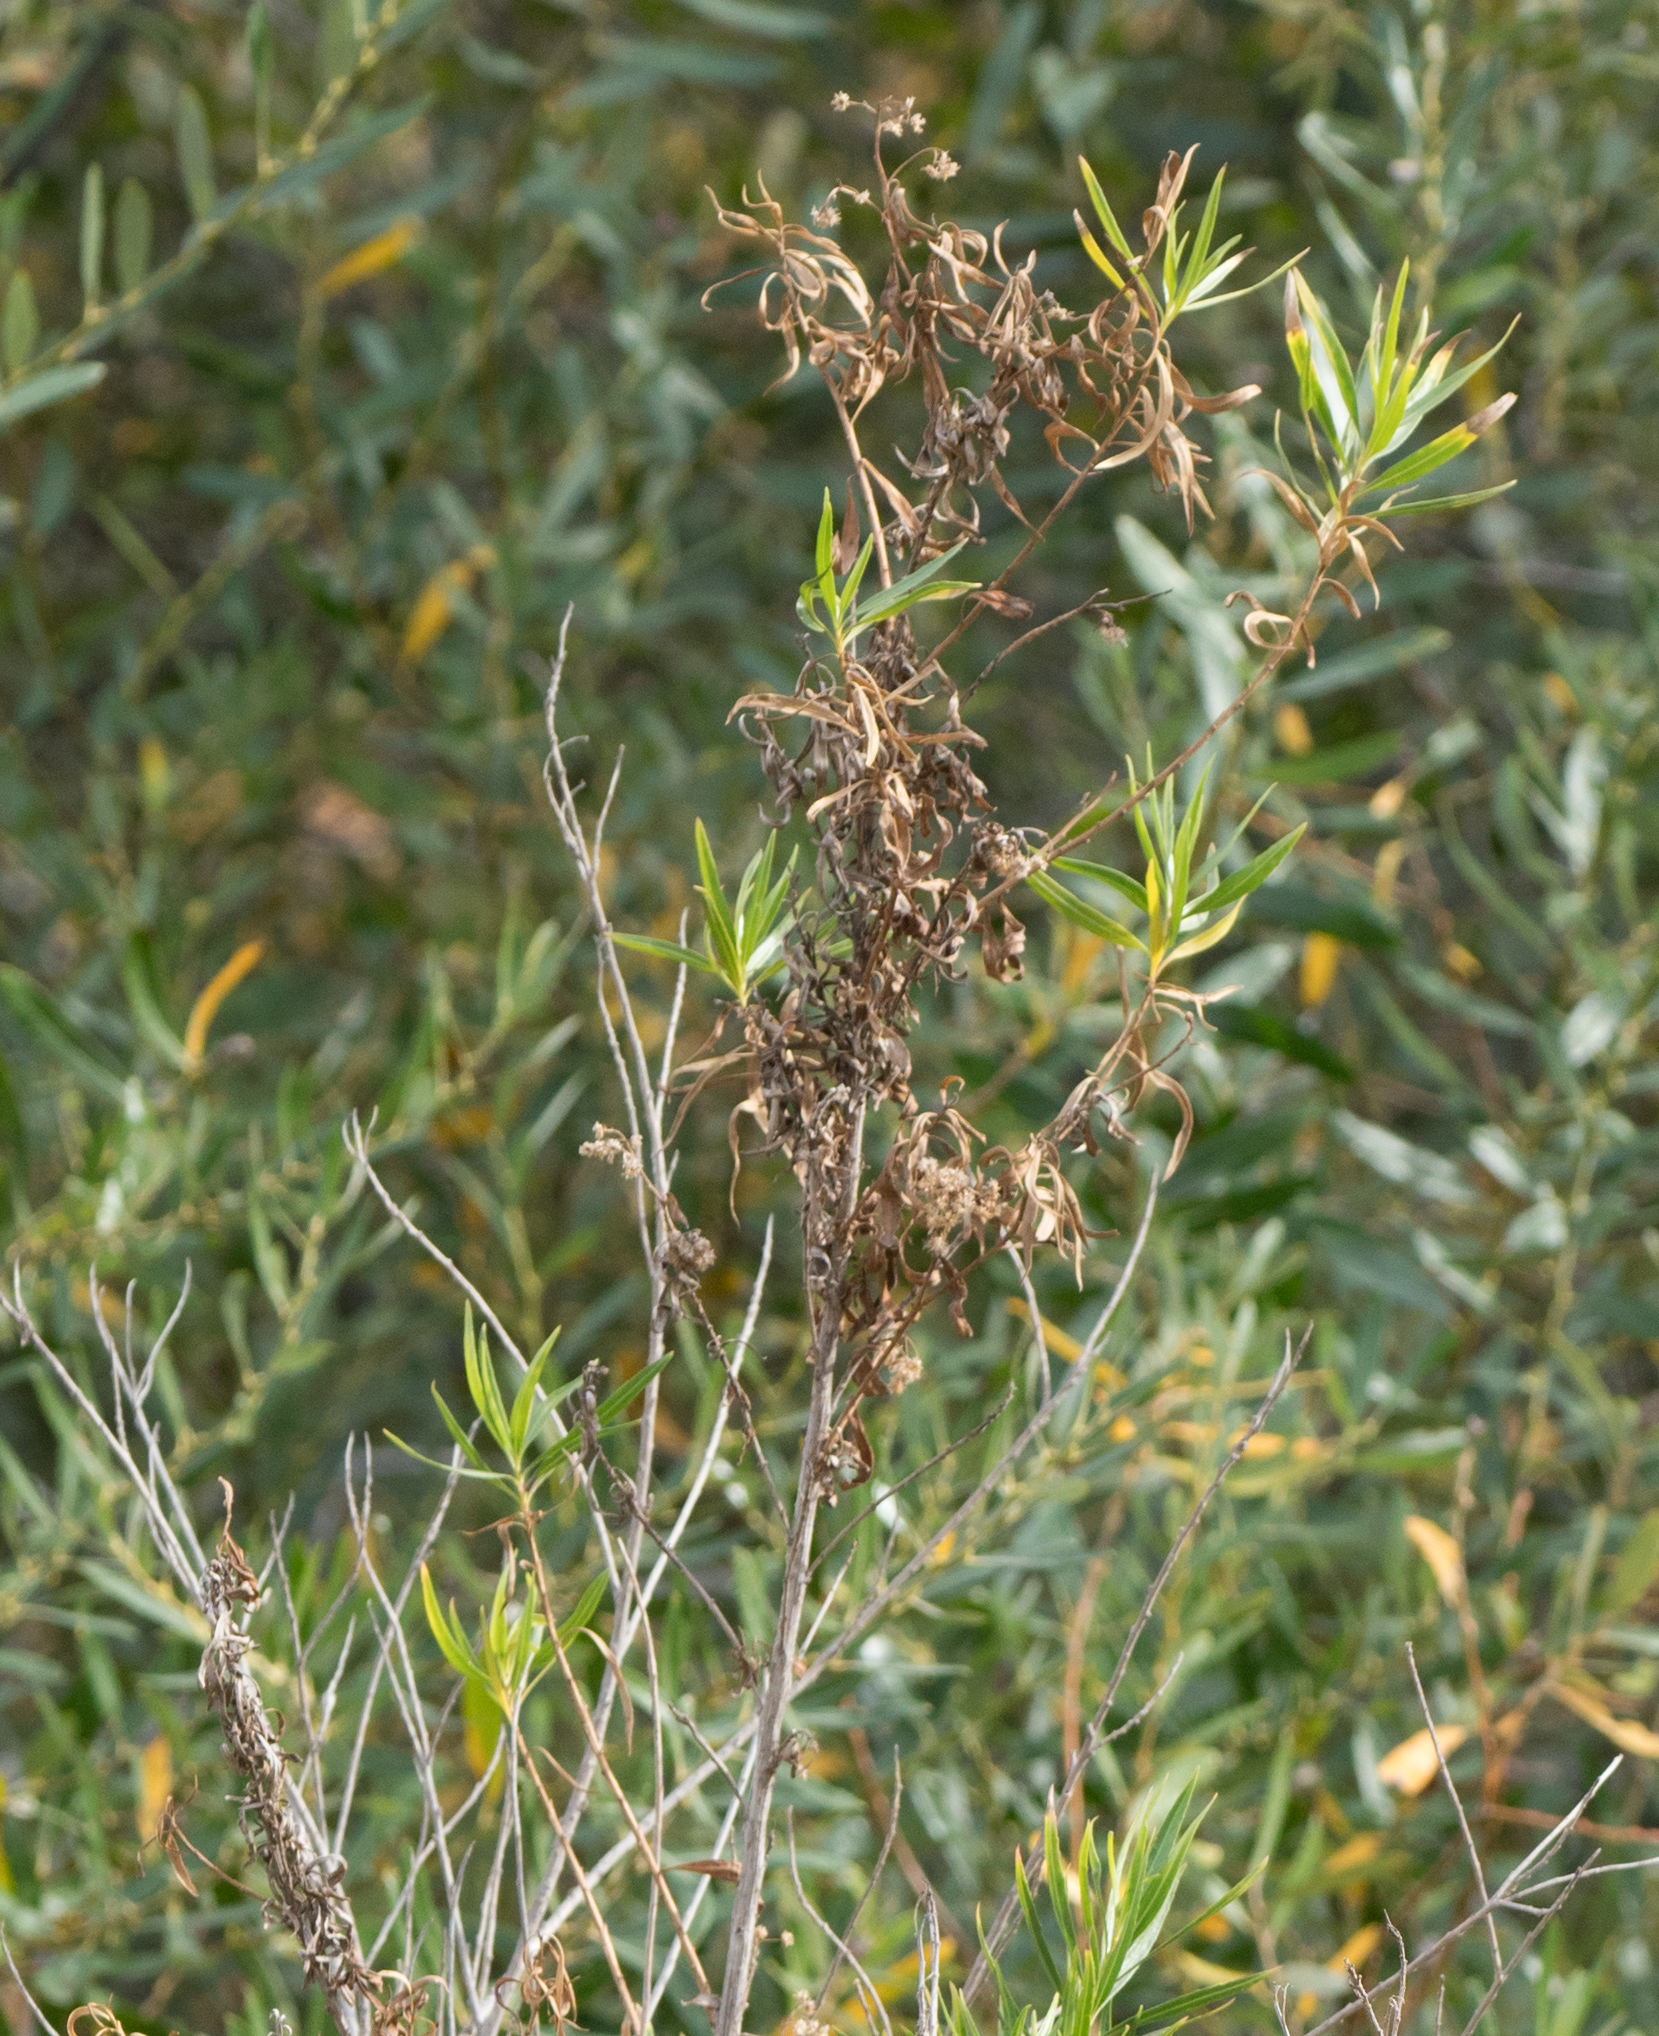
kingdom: Plantae
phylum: Tracheophyta
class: Magnoliopsida
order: Asterales
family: Asteraceae
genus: Baccharis
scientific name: Baccharis salicifolia
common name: Sticky baccharis
